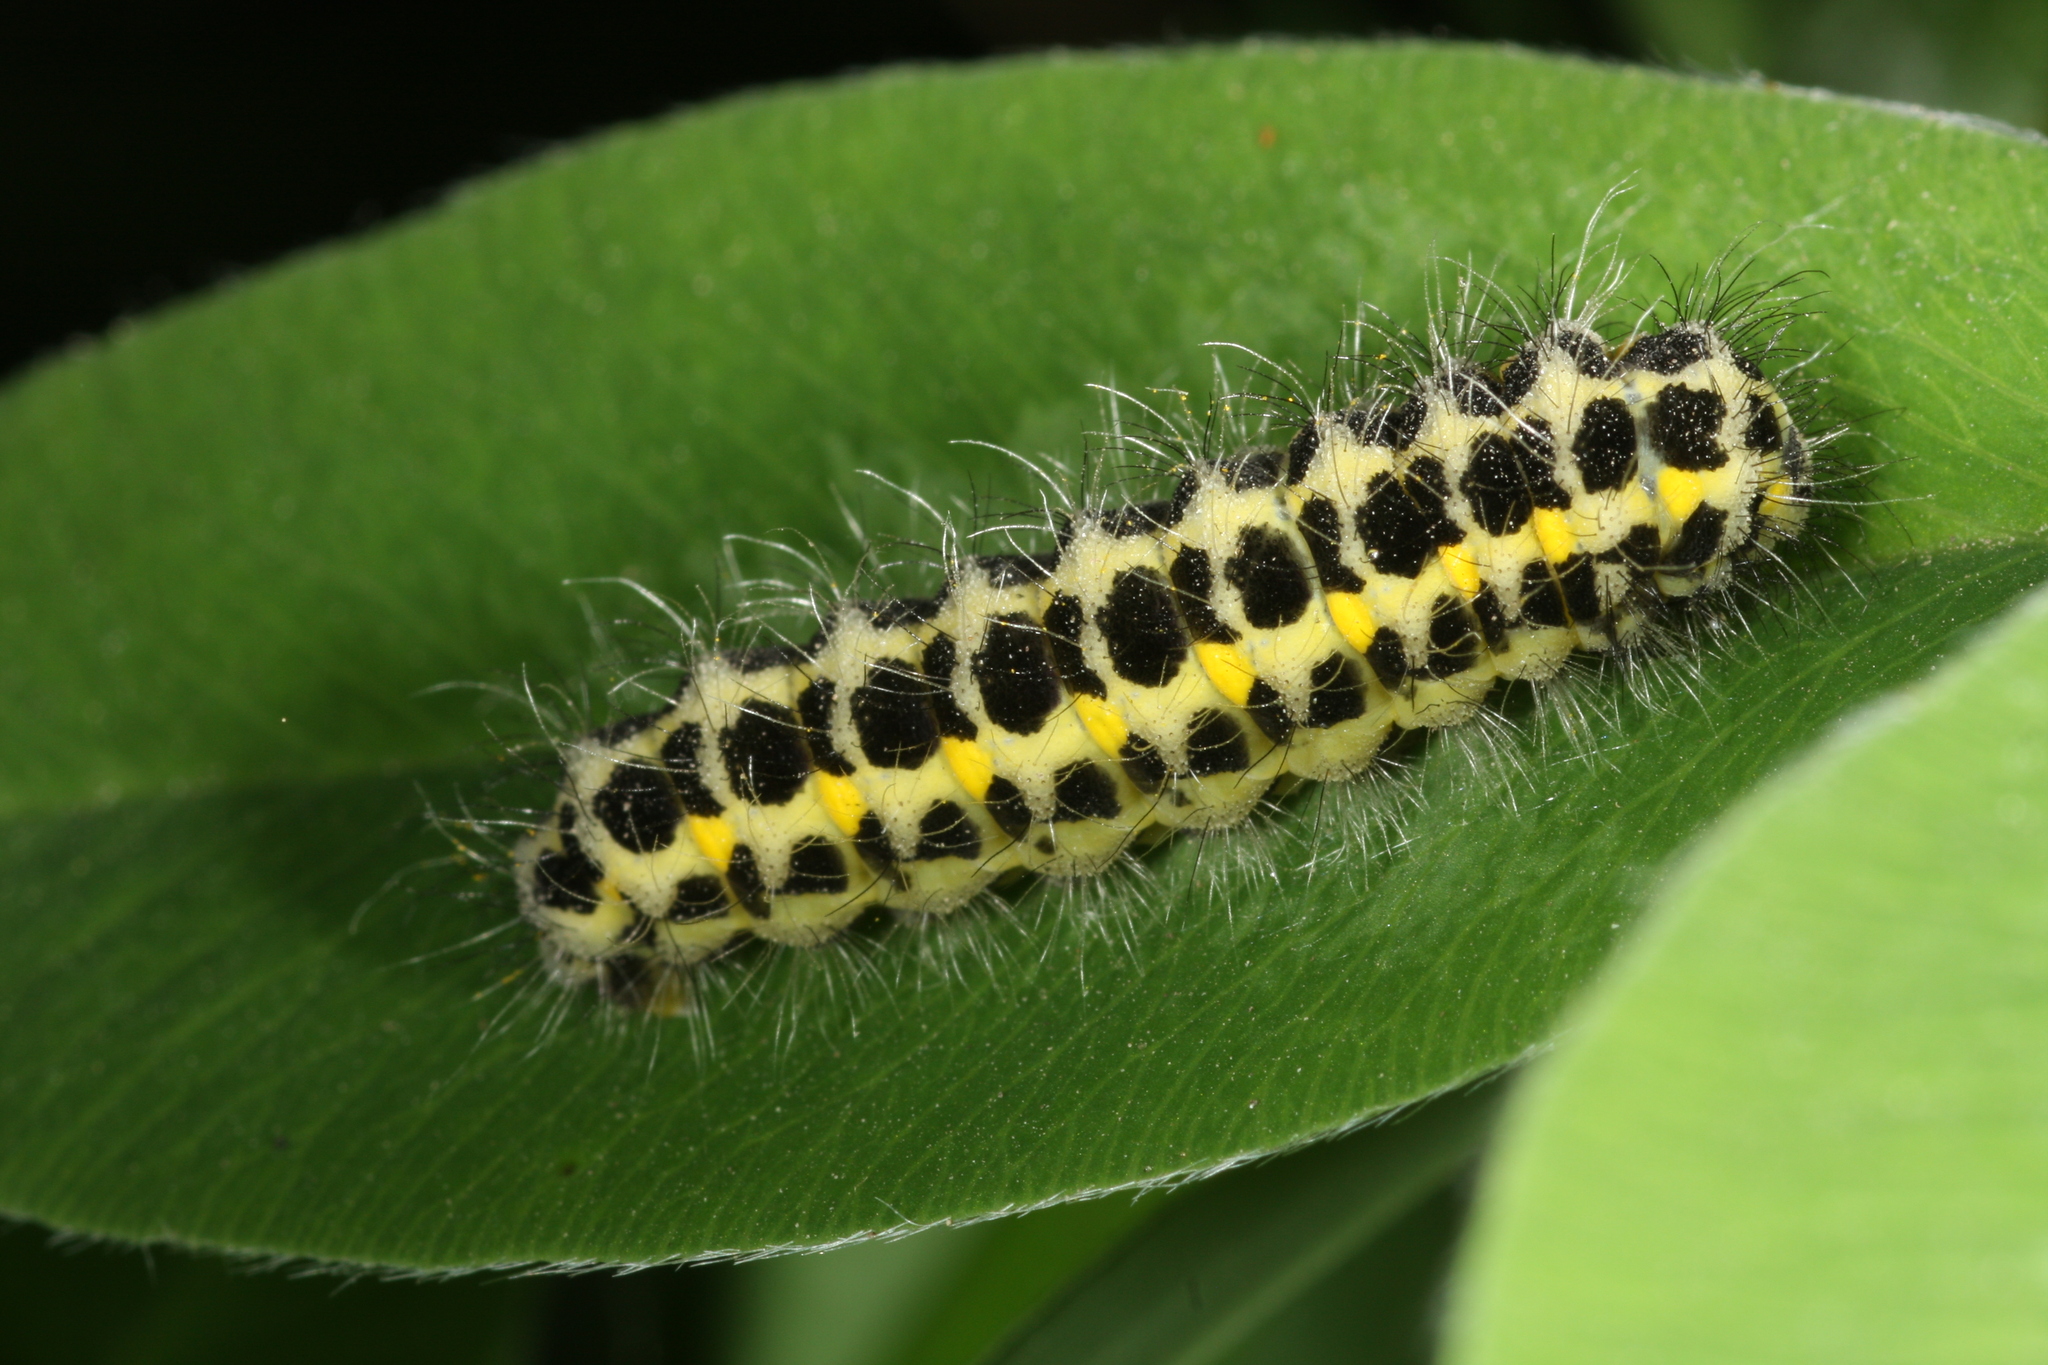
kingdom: Animalia
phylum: Arthropoda
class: Insecta
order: Lepidoptera
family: Zygaenidae
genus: Zygaena
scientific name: Zygaena lonicerae
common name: Narrow-bordered five-spot burnet
